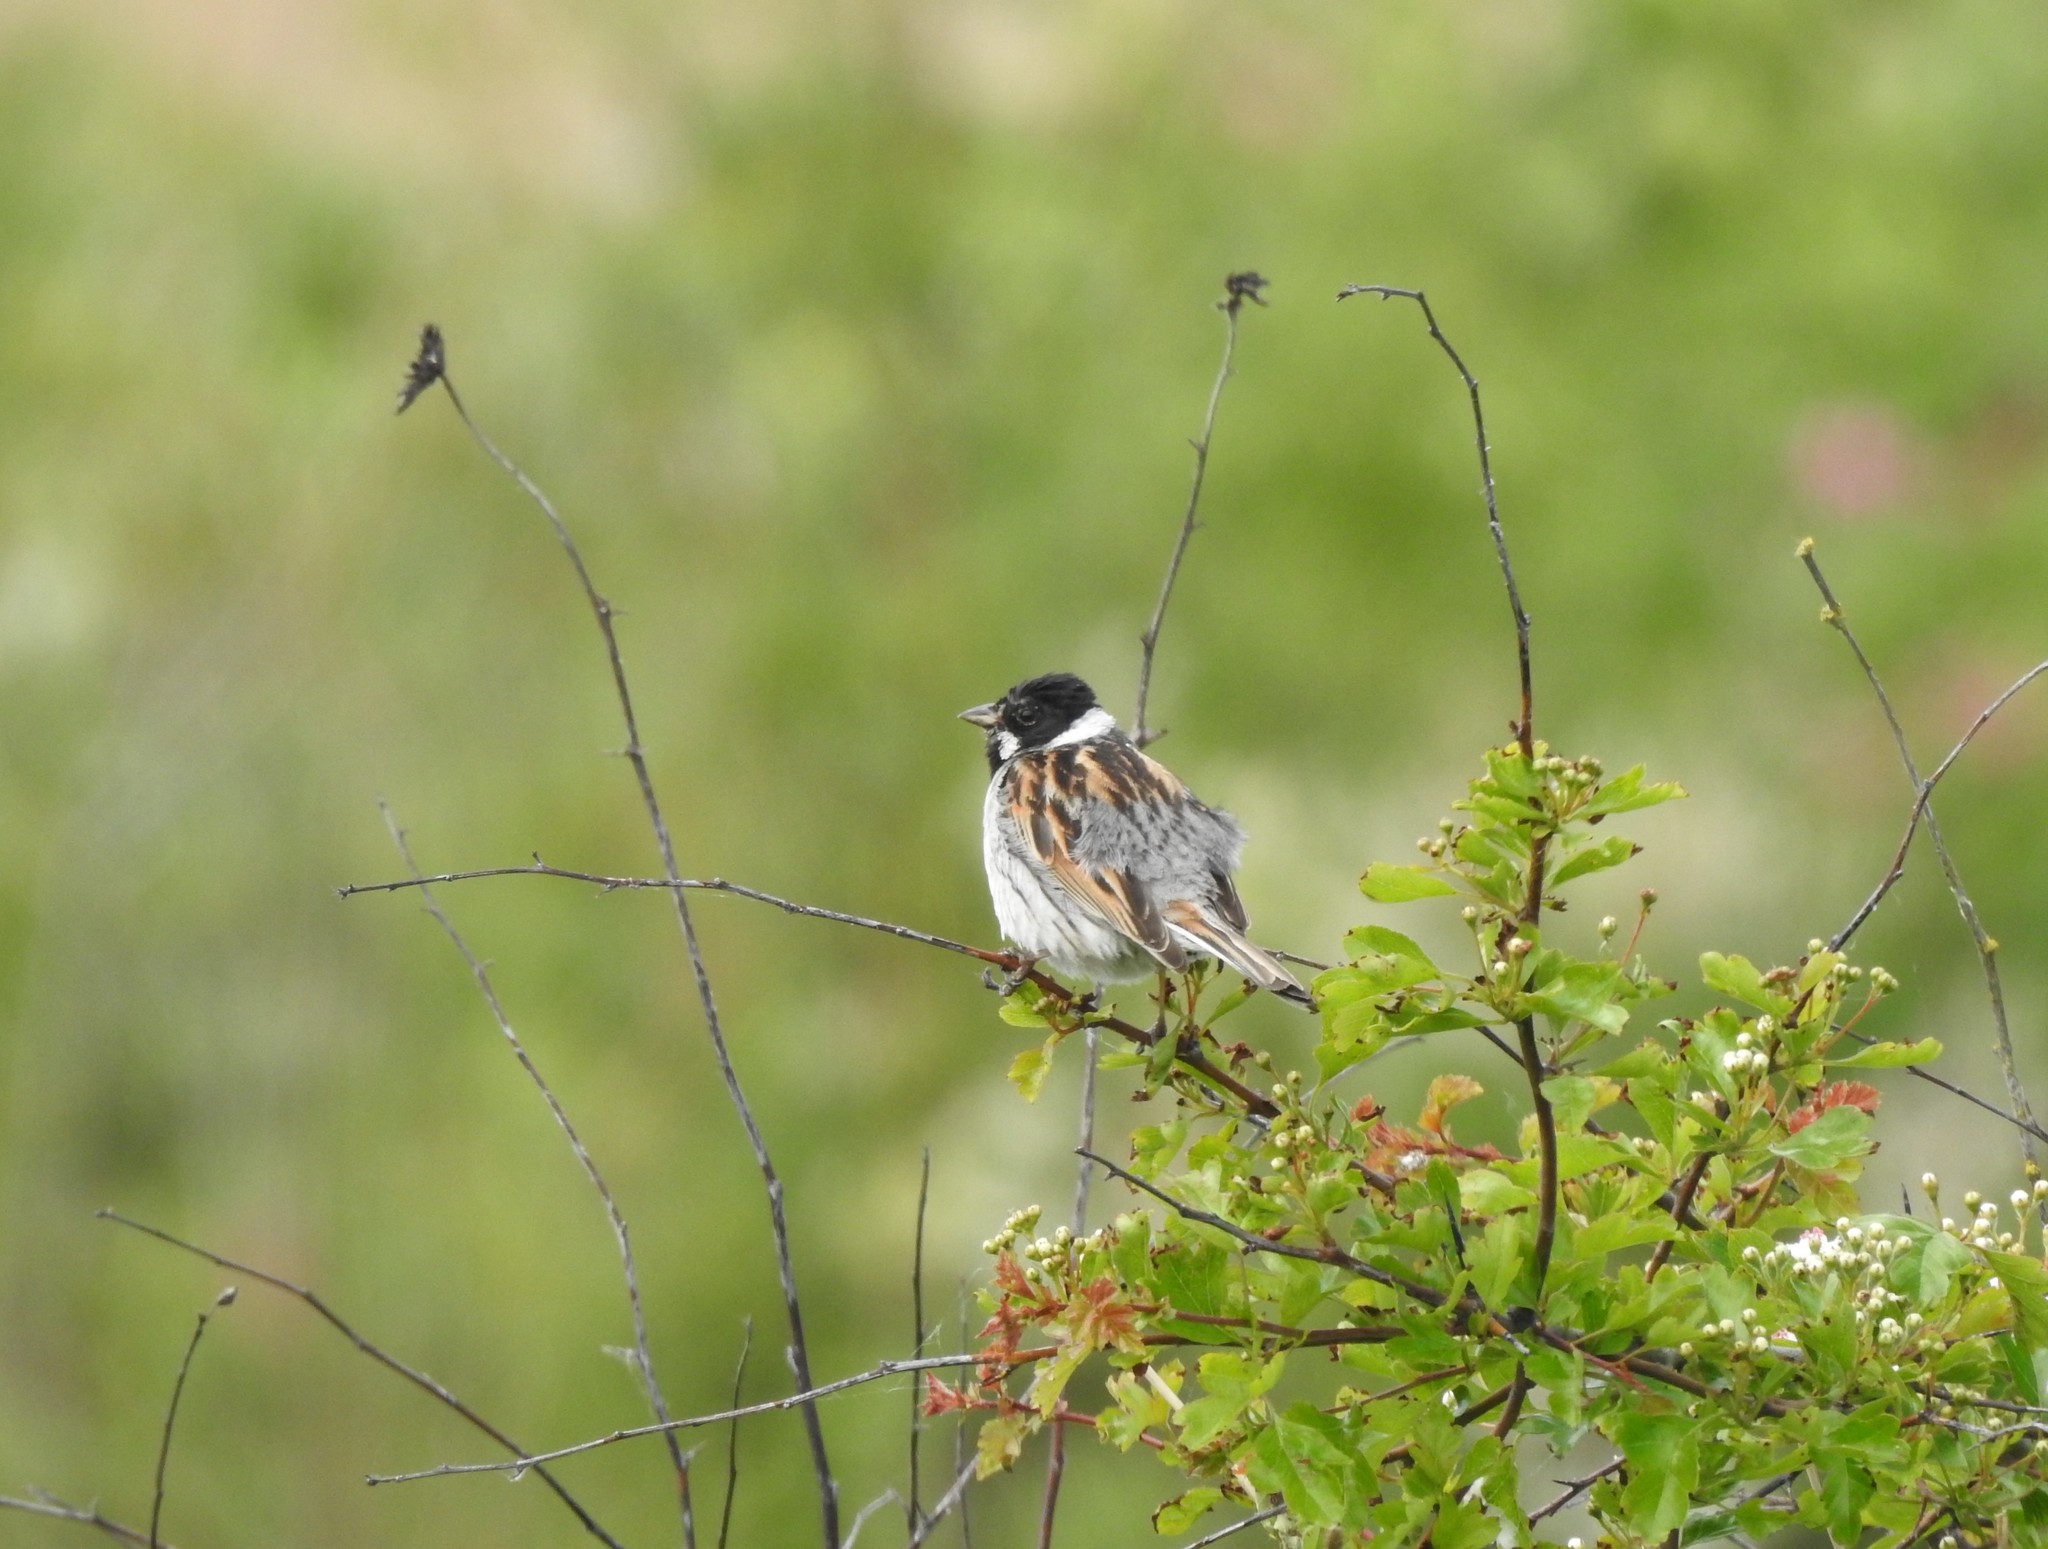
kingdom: Animalia
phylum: Chordata
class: Aves
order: Passeriformes
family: Emberizidae
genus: Emberiza
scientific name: Emberiza schoeniclus
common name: Reed bunting
